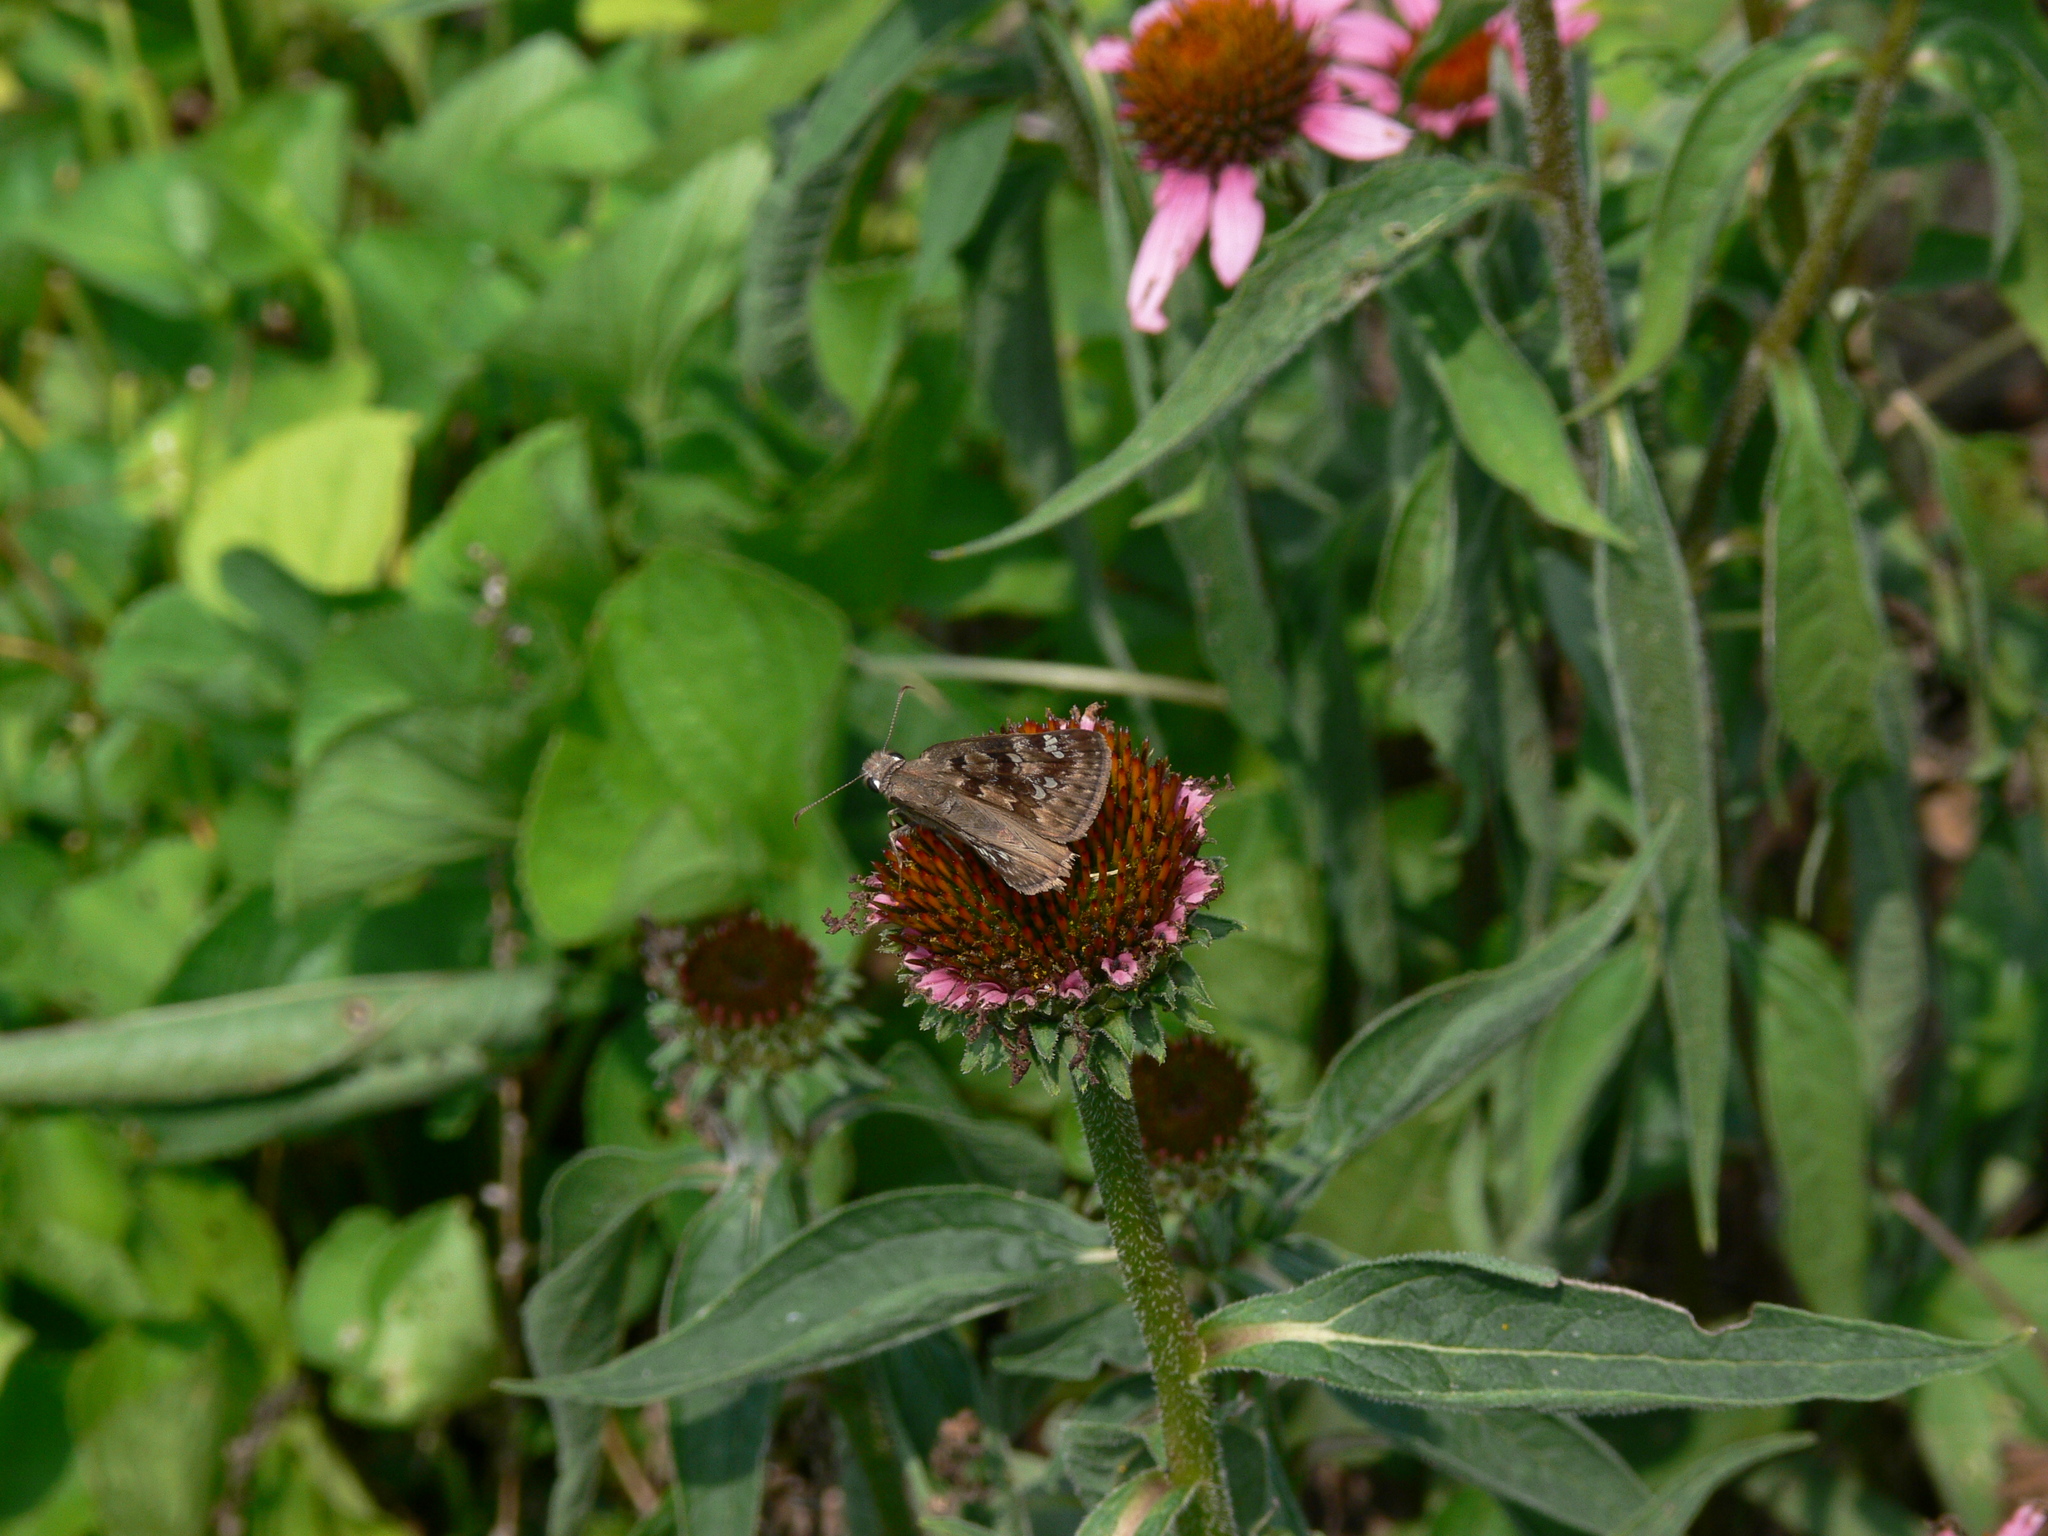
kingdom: Animalia
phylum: Arthropoda
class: Insecta
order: Lepidoptera
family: Hesperiidae
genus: Erynnis
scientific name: Erynnis horatius
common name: Horace's duskywing
